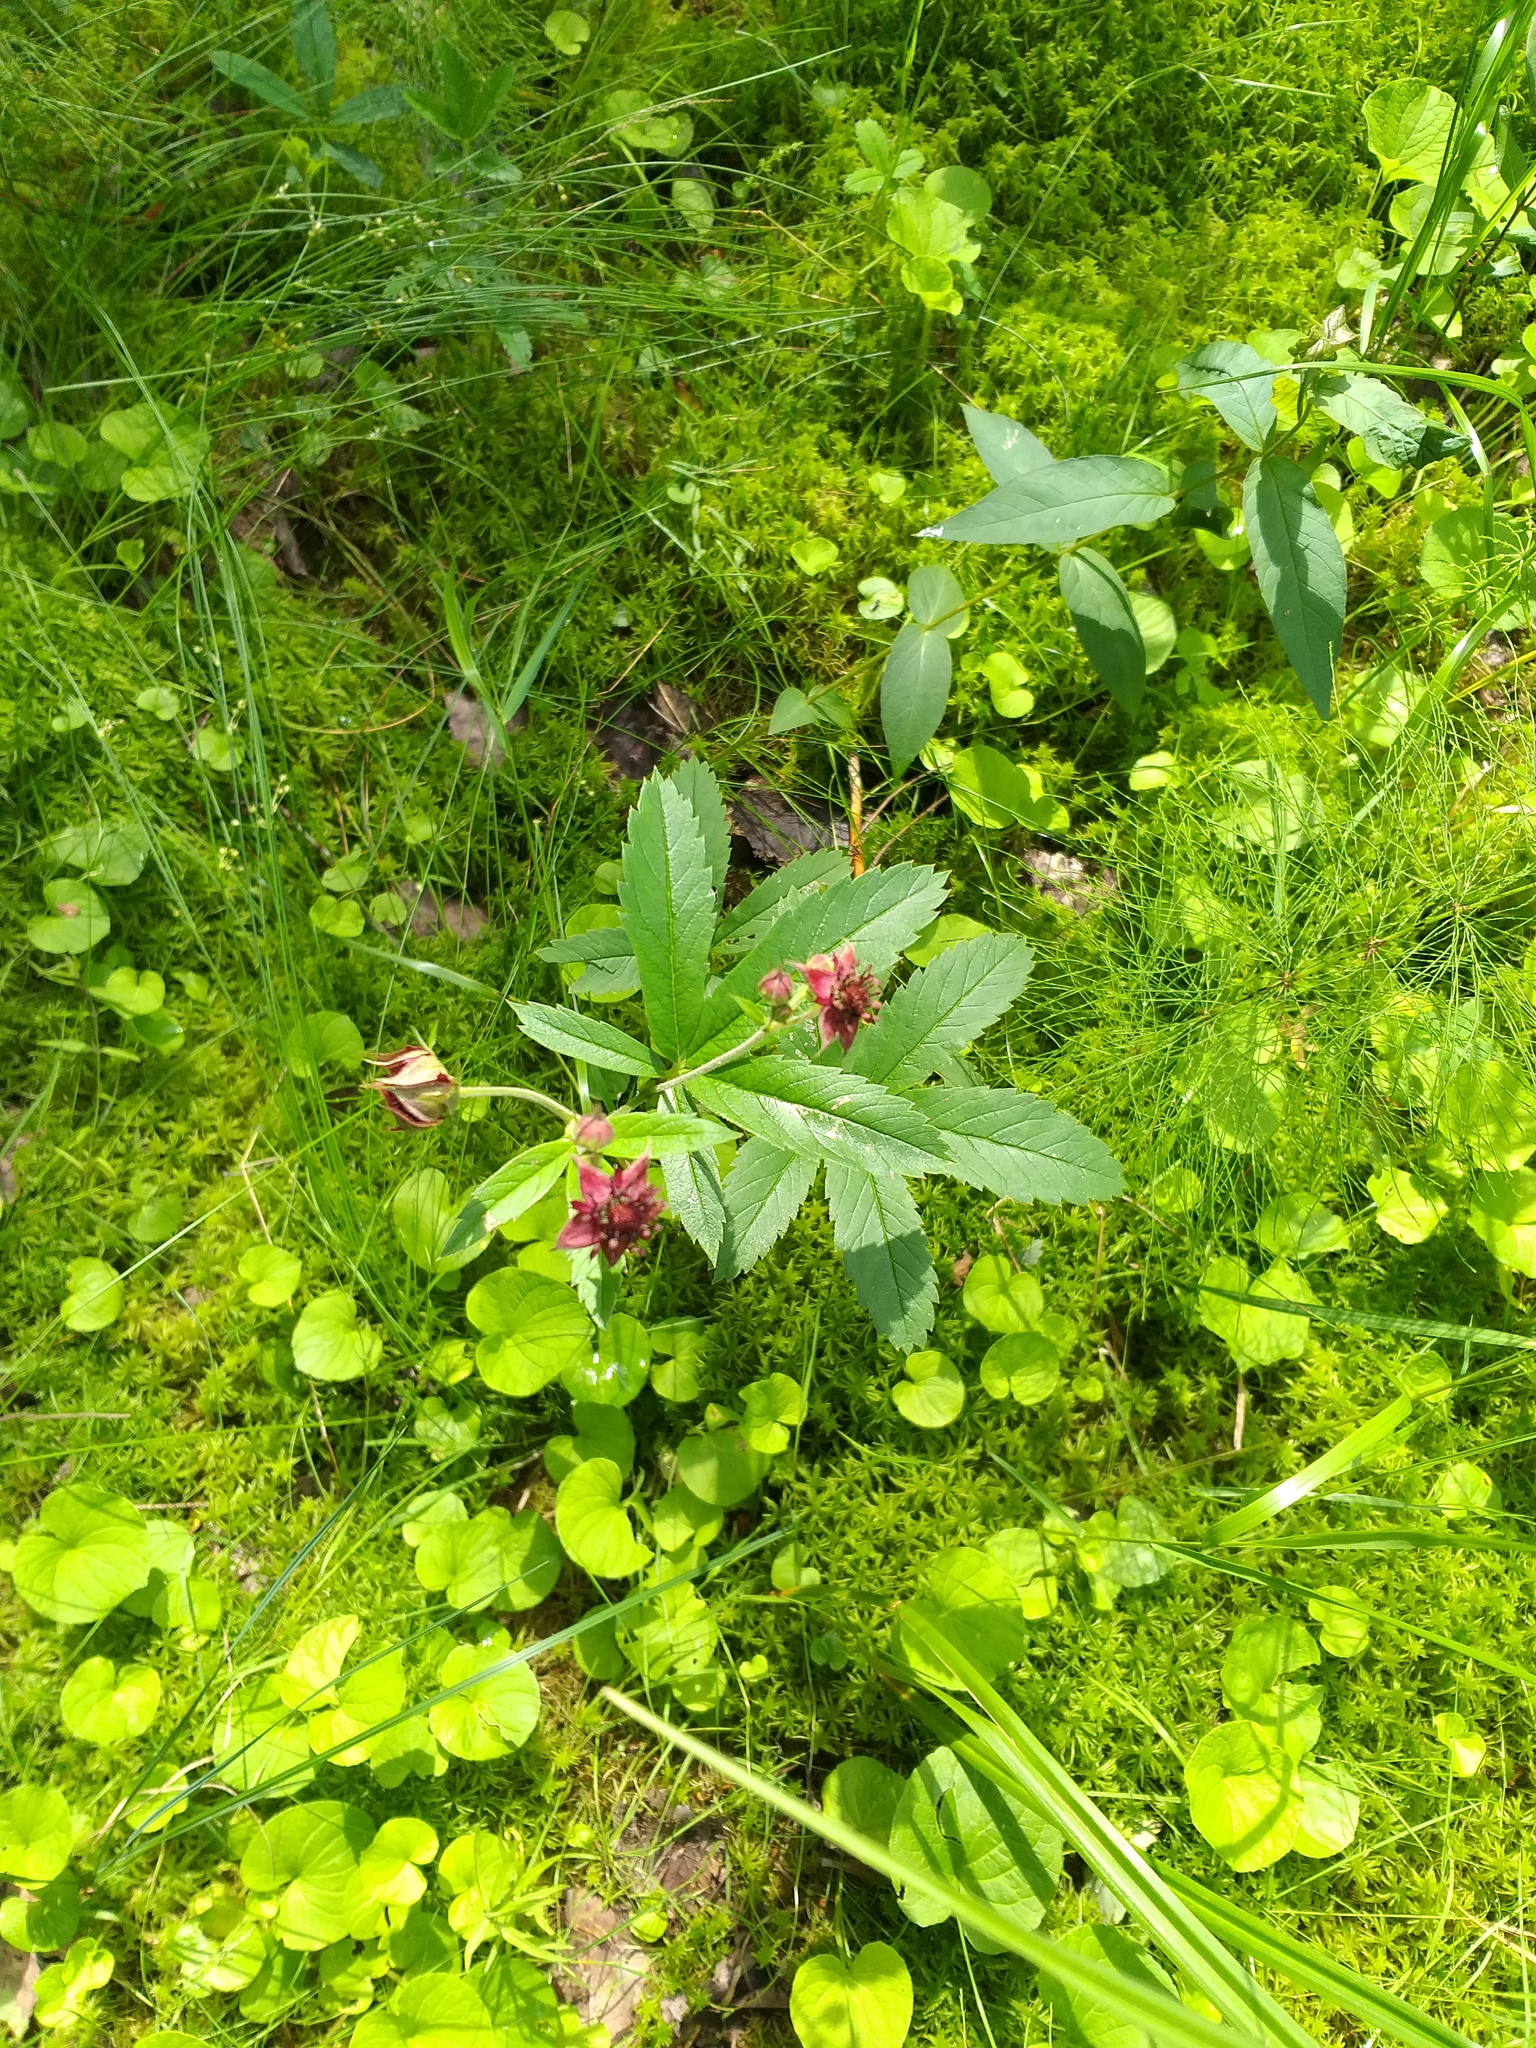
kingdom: Plantae
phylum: Tracheophyta
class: Magnoliopsida
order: Rosales
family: Rosaceae
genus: Comarum
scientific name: Comarum palustre
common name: Marsh cinquefoil
